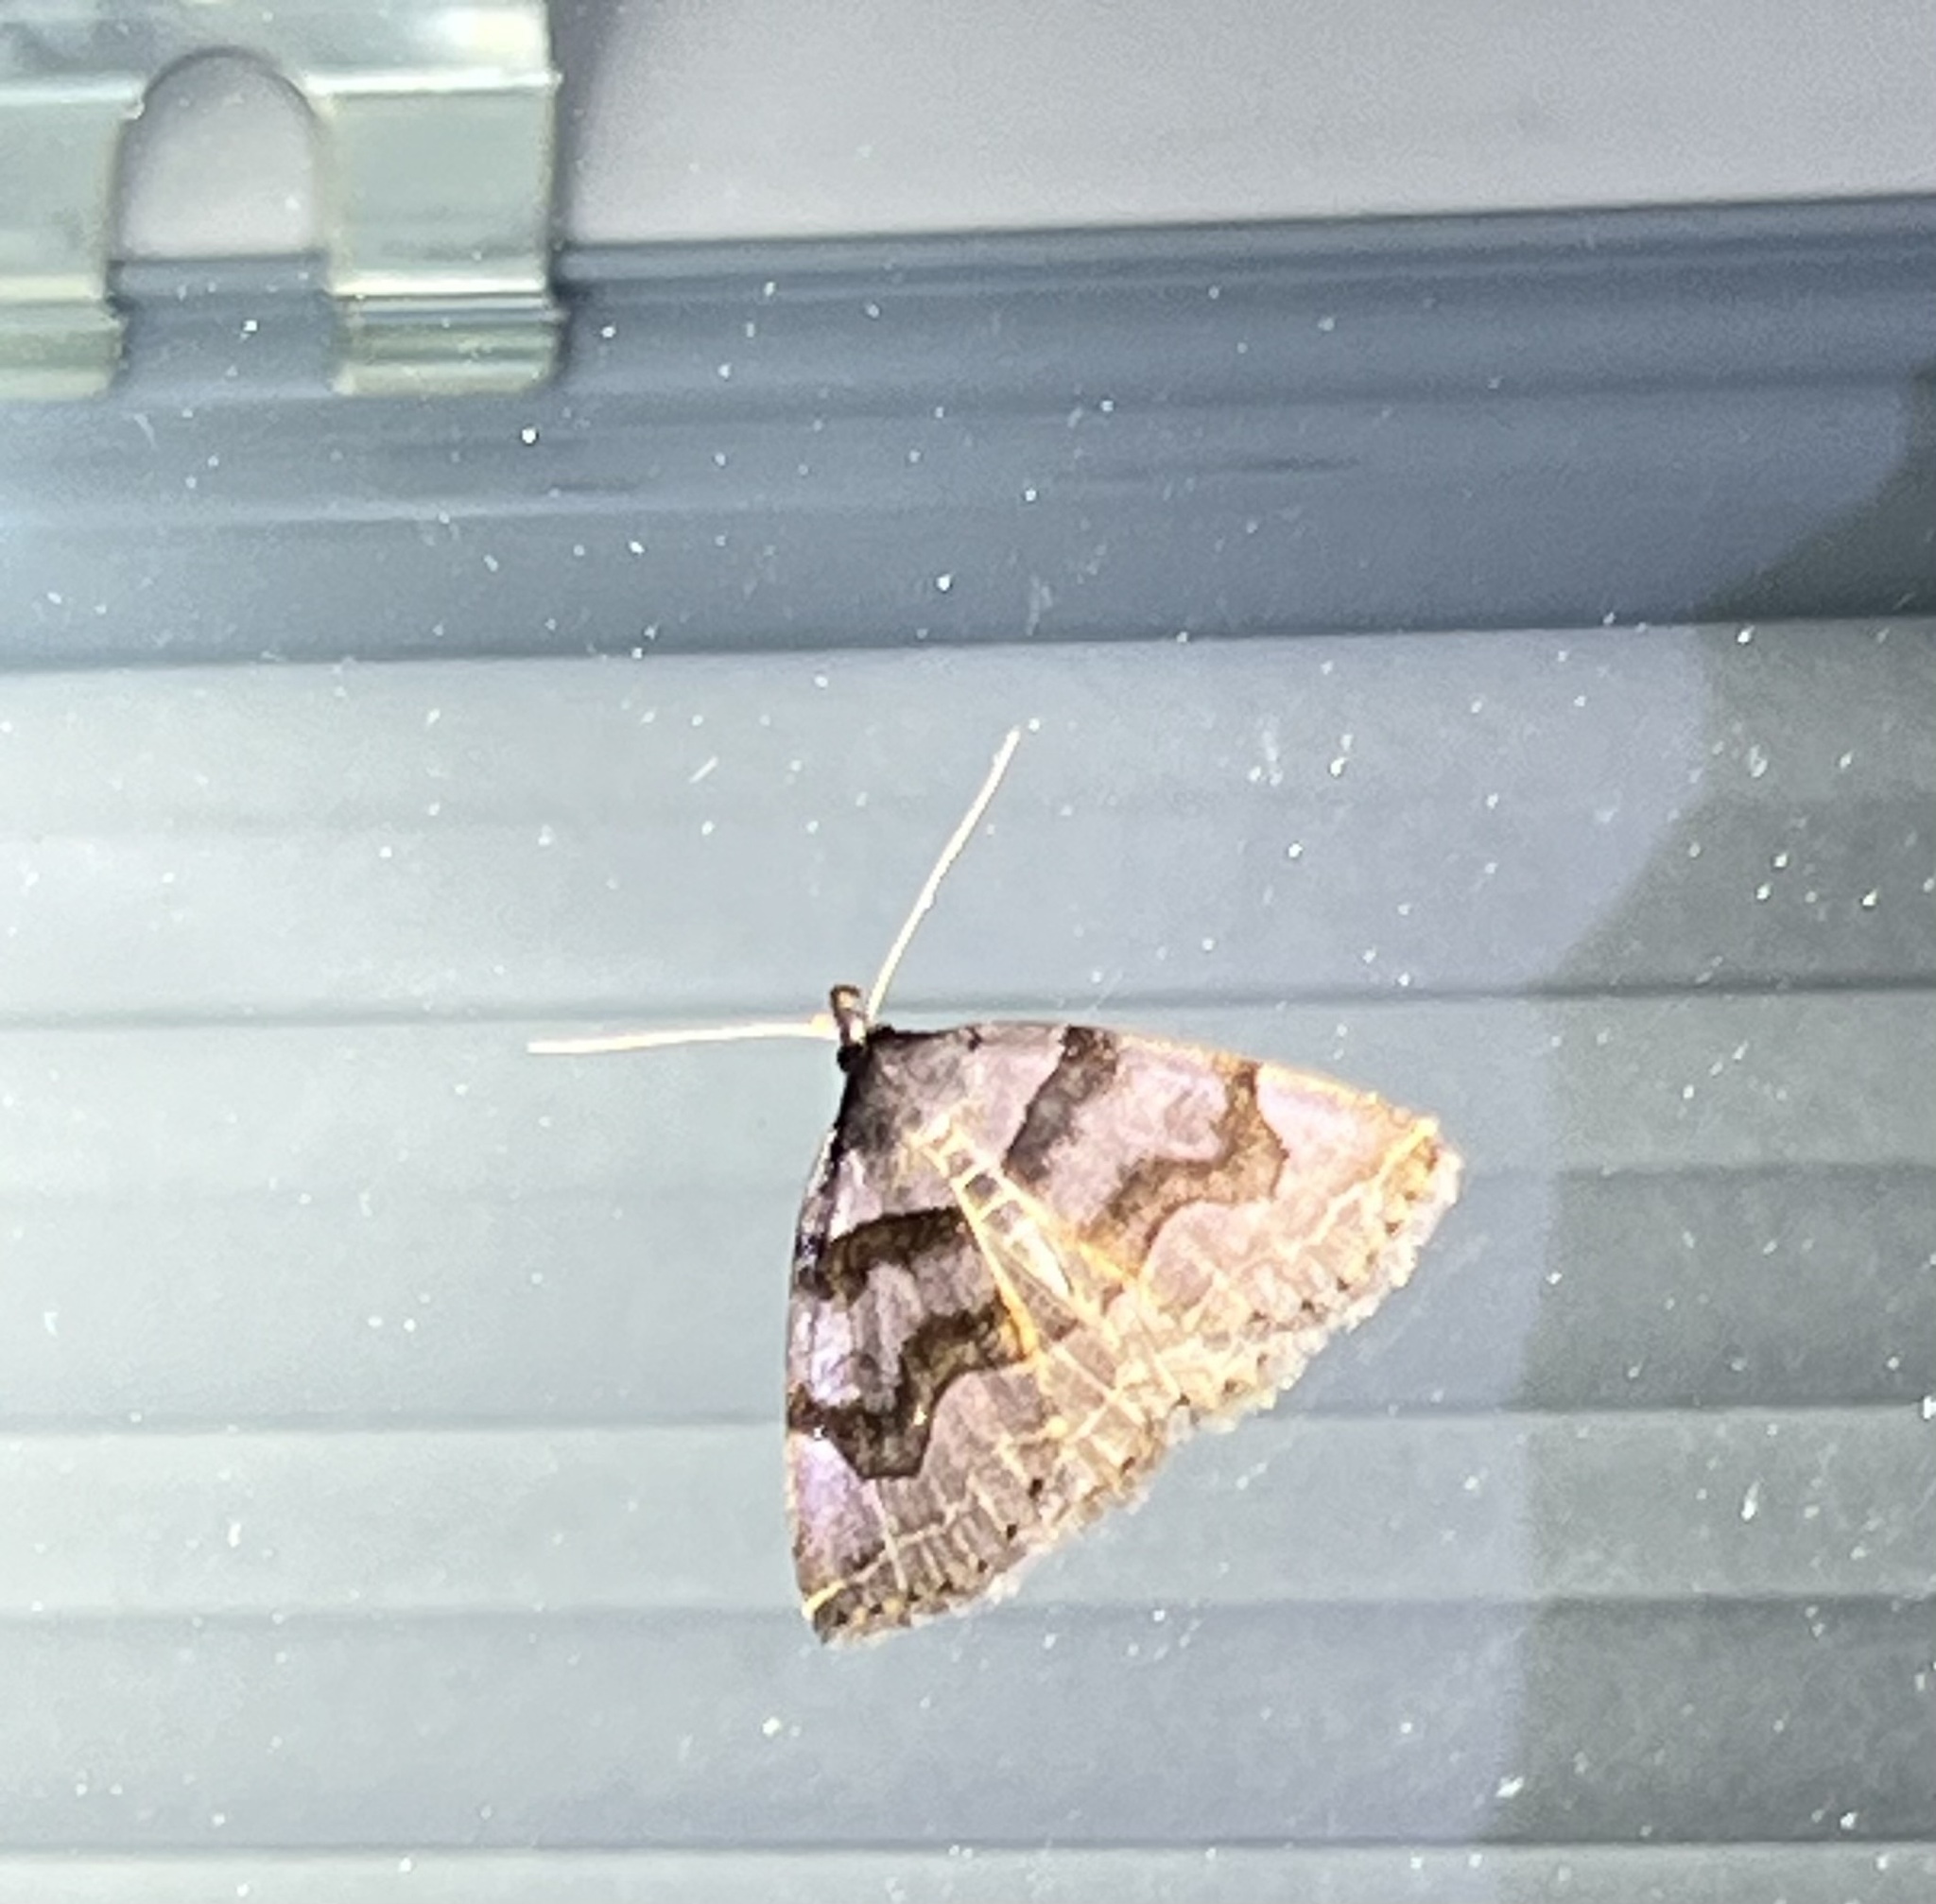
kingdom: Animalia
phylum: Arthropoda
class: Insecta
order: Lepidoptera
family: Erebidae
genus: Zanclognatha
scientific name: Zanclognatha laevigata
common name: Variable fan-foot
